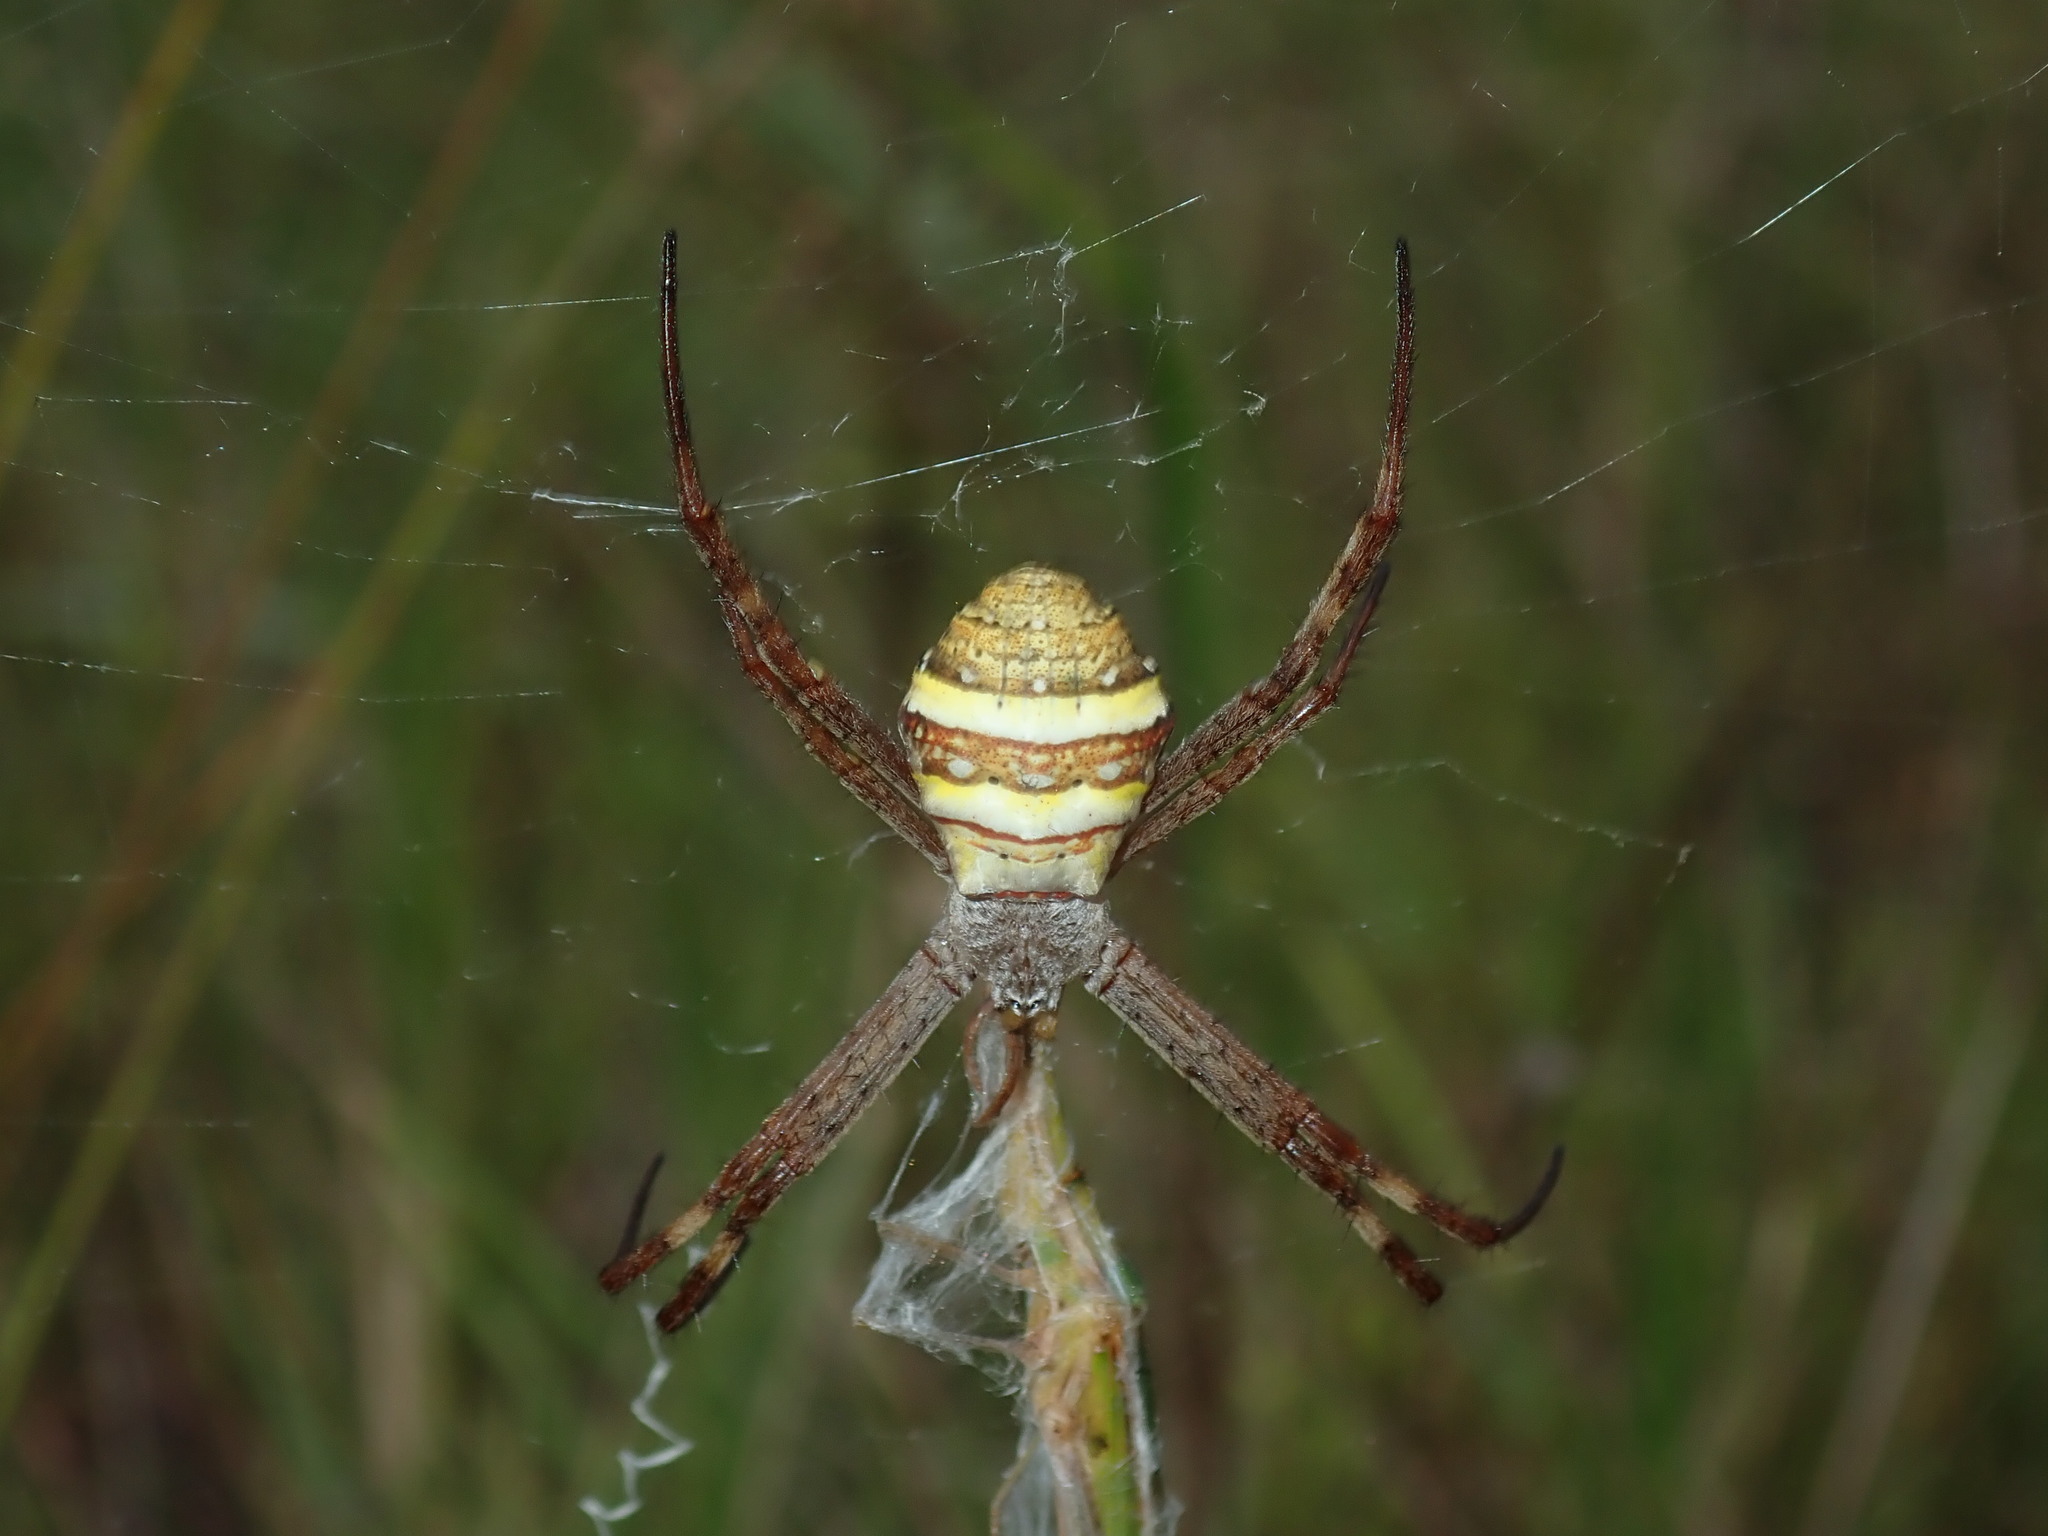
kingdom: Animalia
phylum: Arthropoda
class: Arachnida
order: Araneae
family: Araneidae
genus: Argiope
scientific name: Argiope keyserlingi
